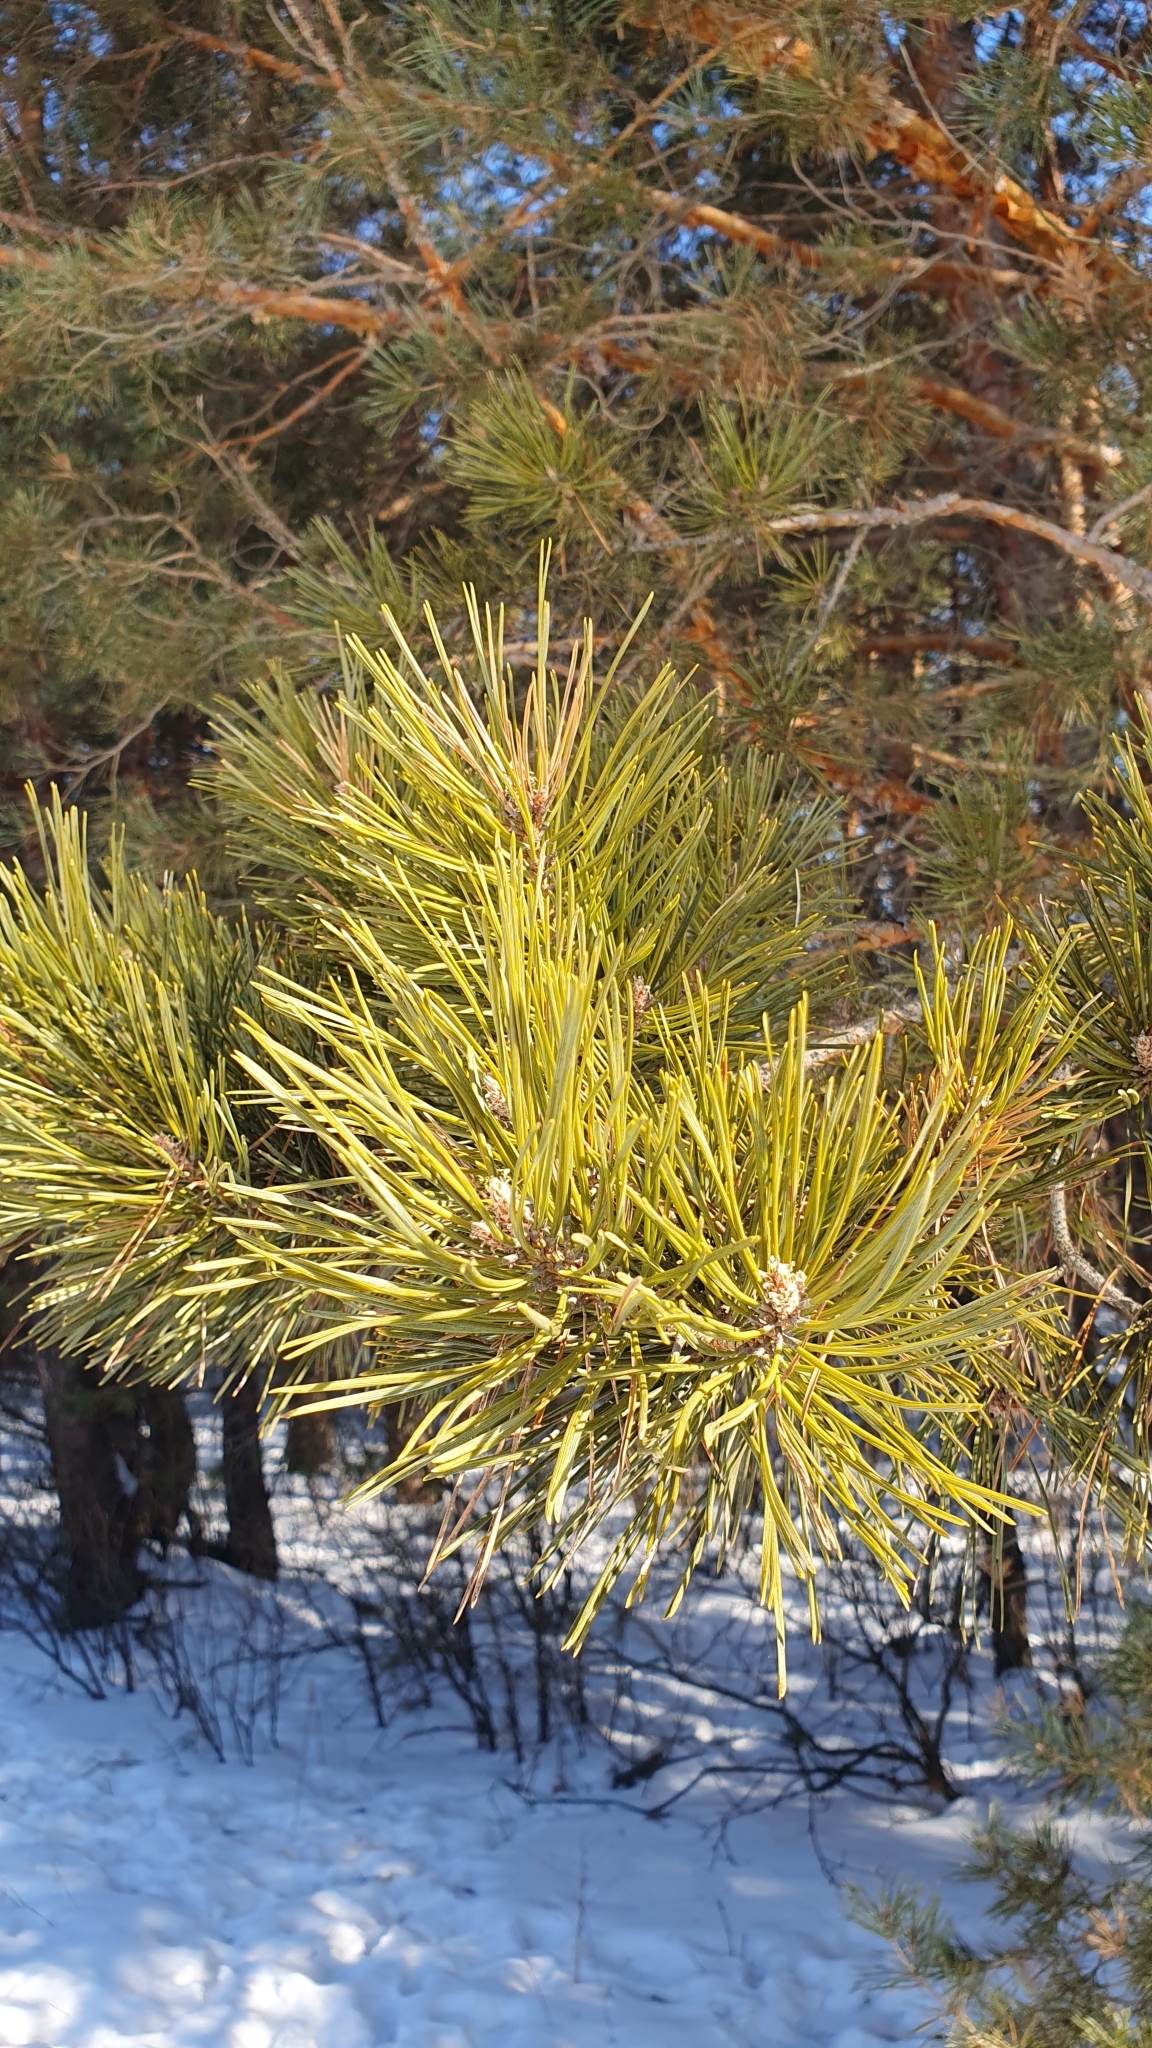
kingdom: Plantae
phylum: Tracheophyta
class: Pinopsida
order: Pinales
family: Pinaceae
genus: Pinus
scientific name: Pinus sylvestris
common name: Scots pine
